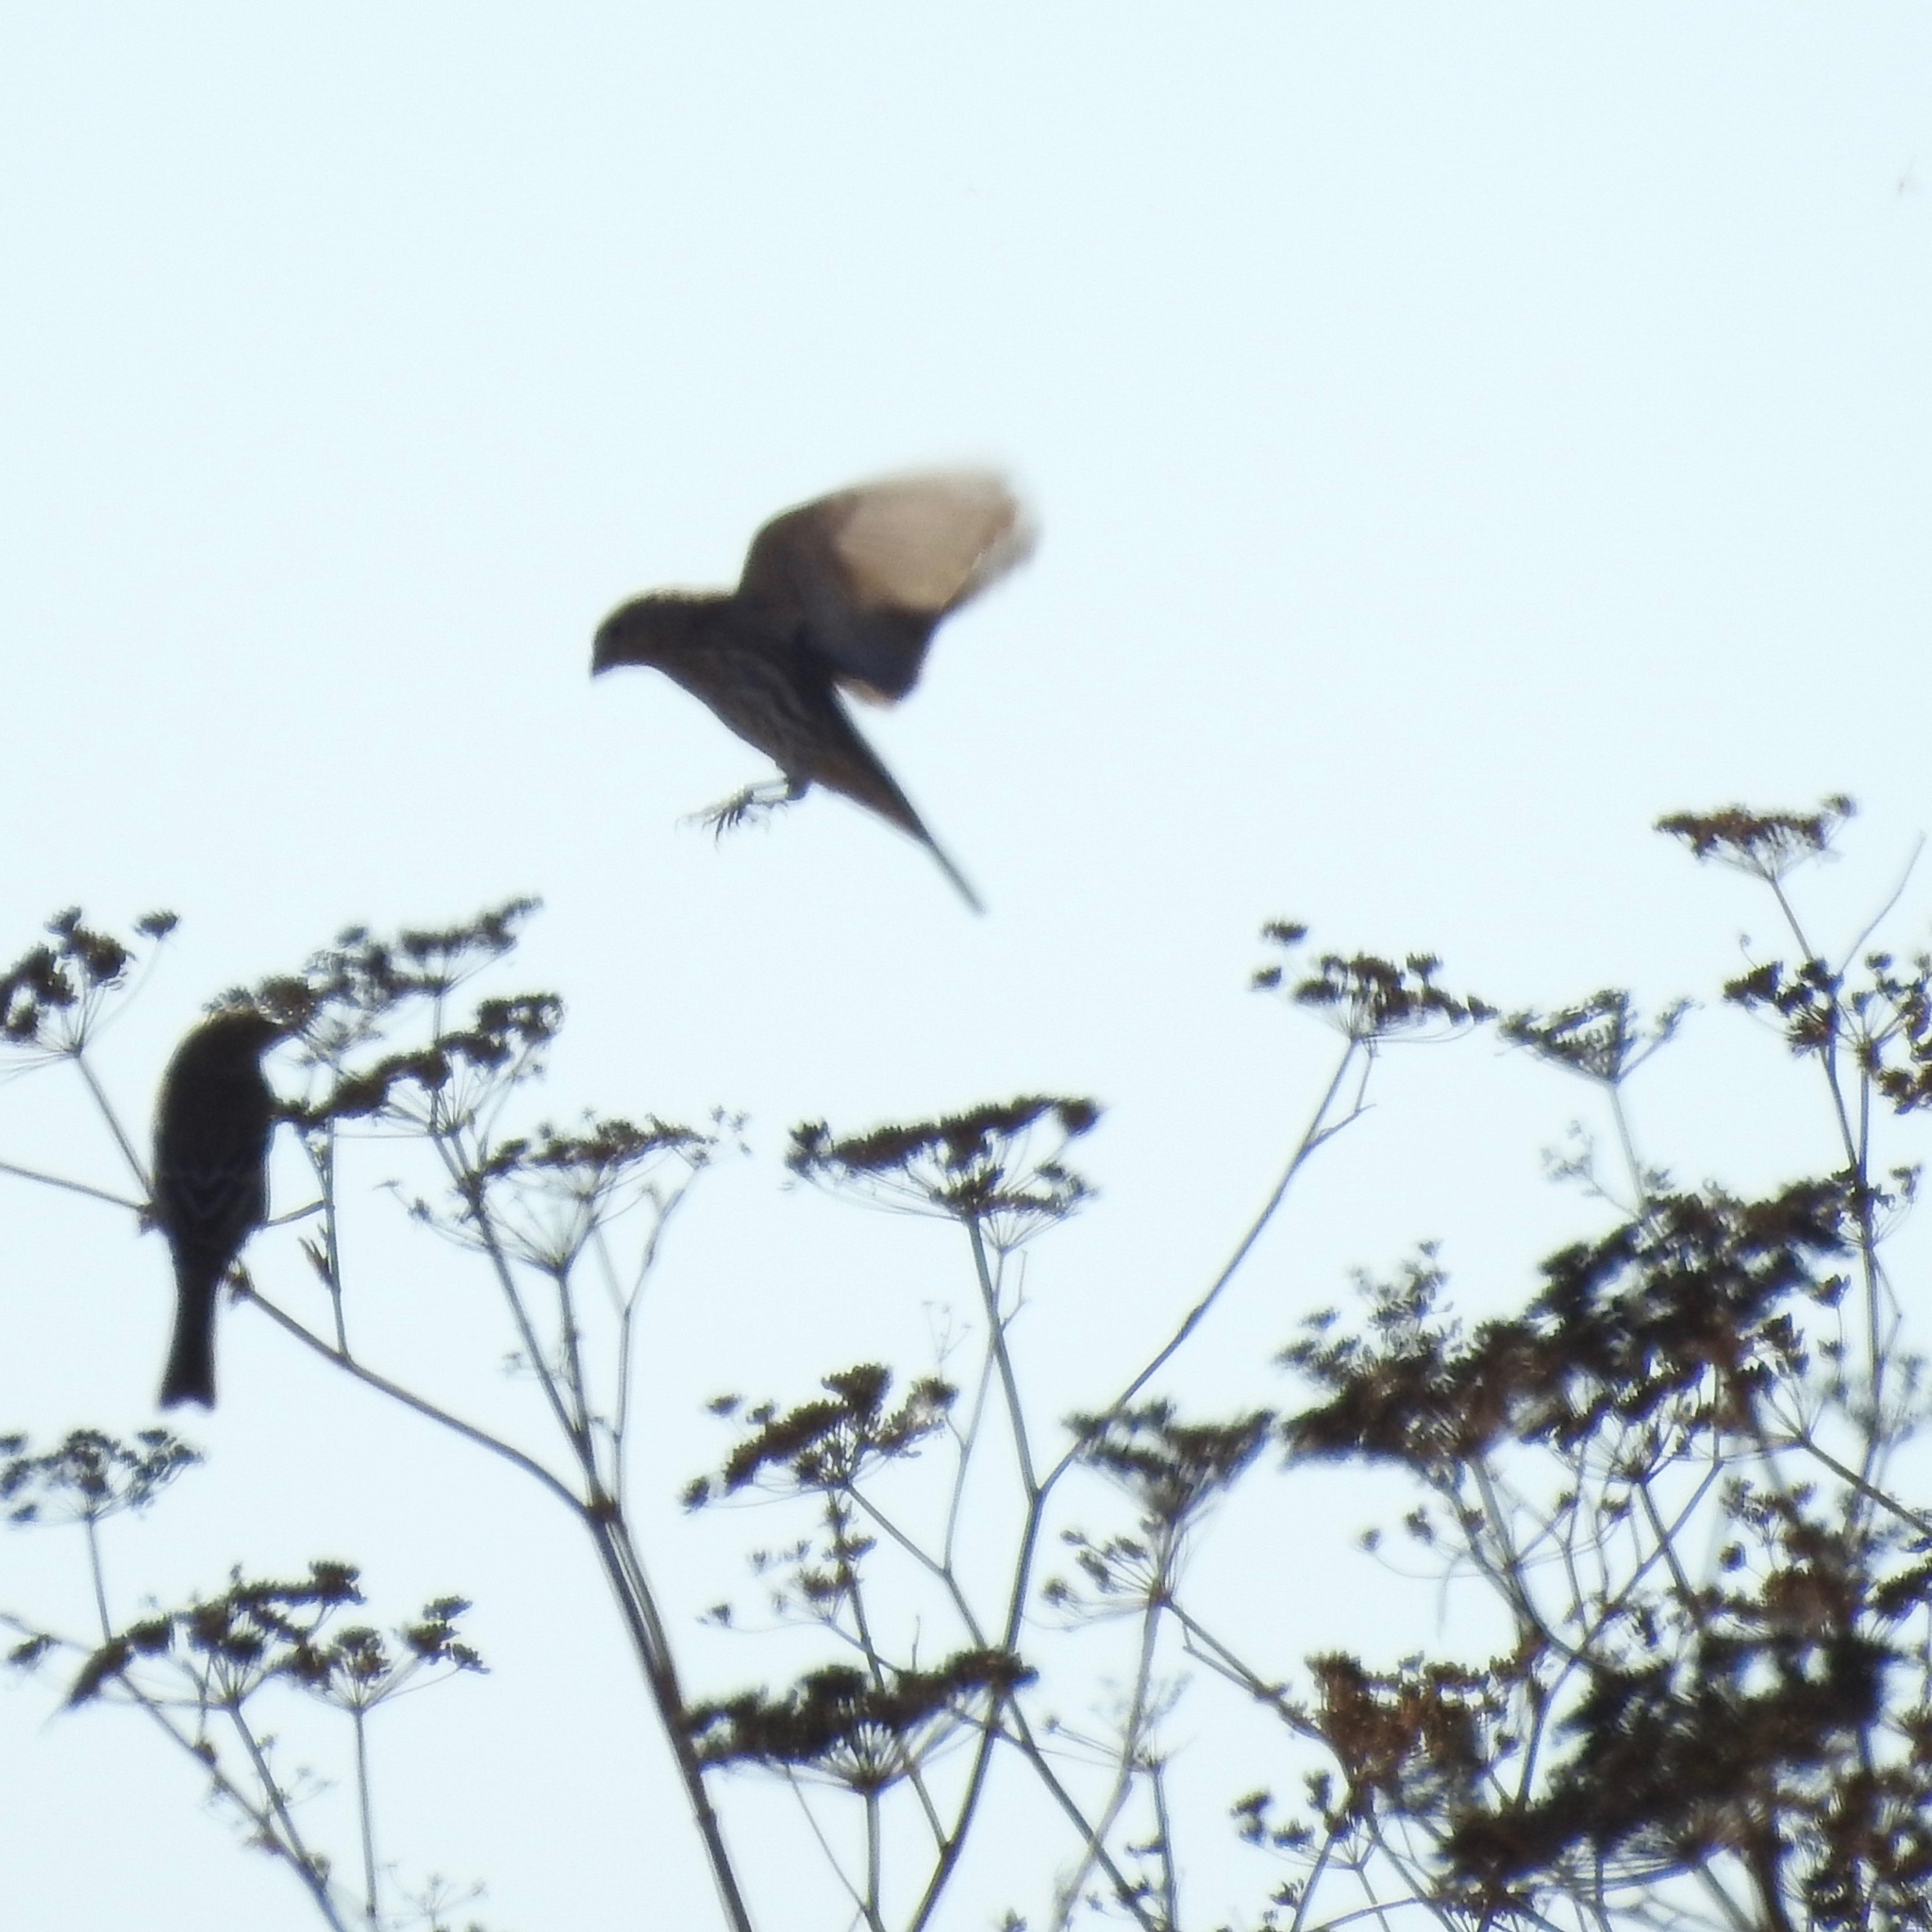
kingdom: Animalia
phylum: Chordata
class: Aves
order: Passeriformes
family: Fringillidae
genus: Haemorhous
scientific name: Haemorhous mexicanus
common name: House finch
